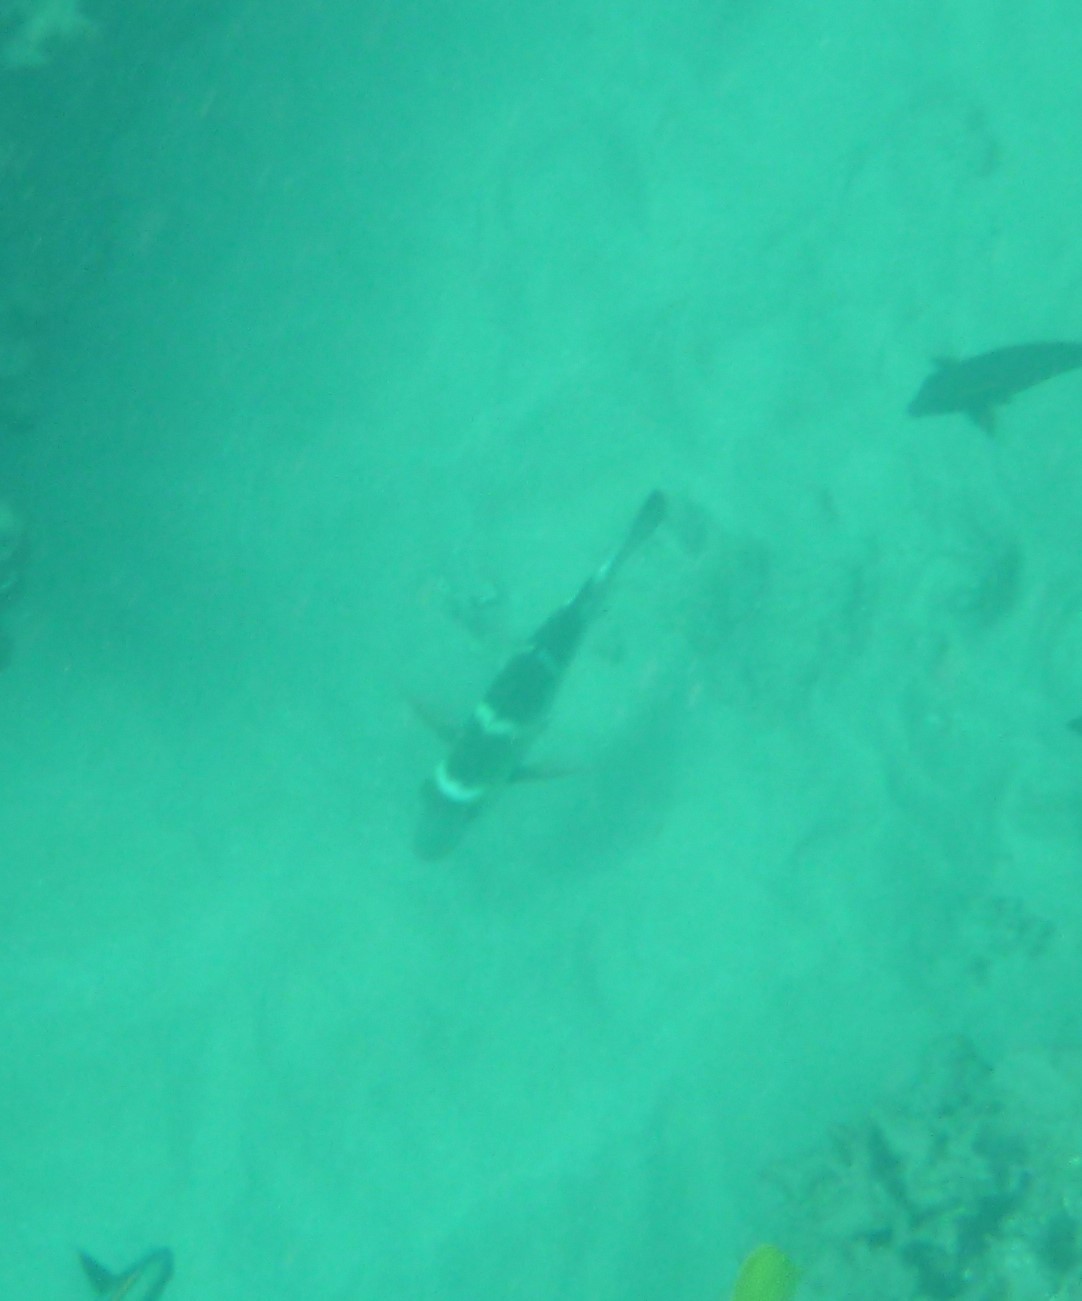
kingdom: Animalia
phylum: Chordata
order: Perciformes
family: Lethrinidae
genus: Monotaxis
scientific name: Monotaxis grandoculis
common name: Bigeye emperor
